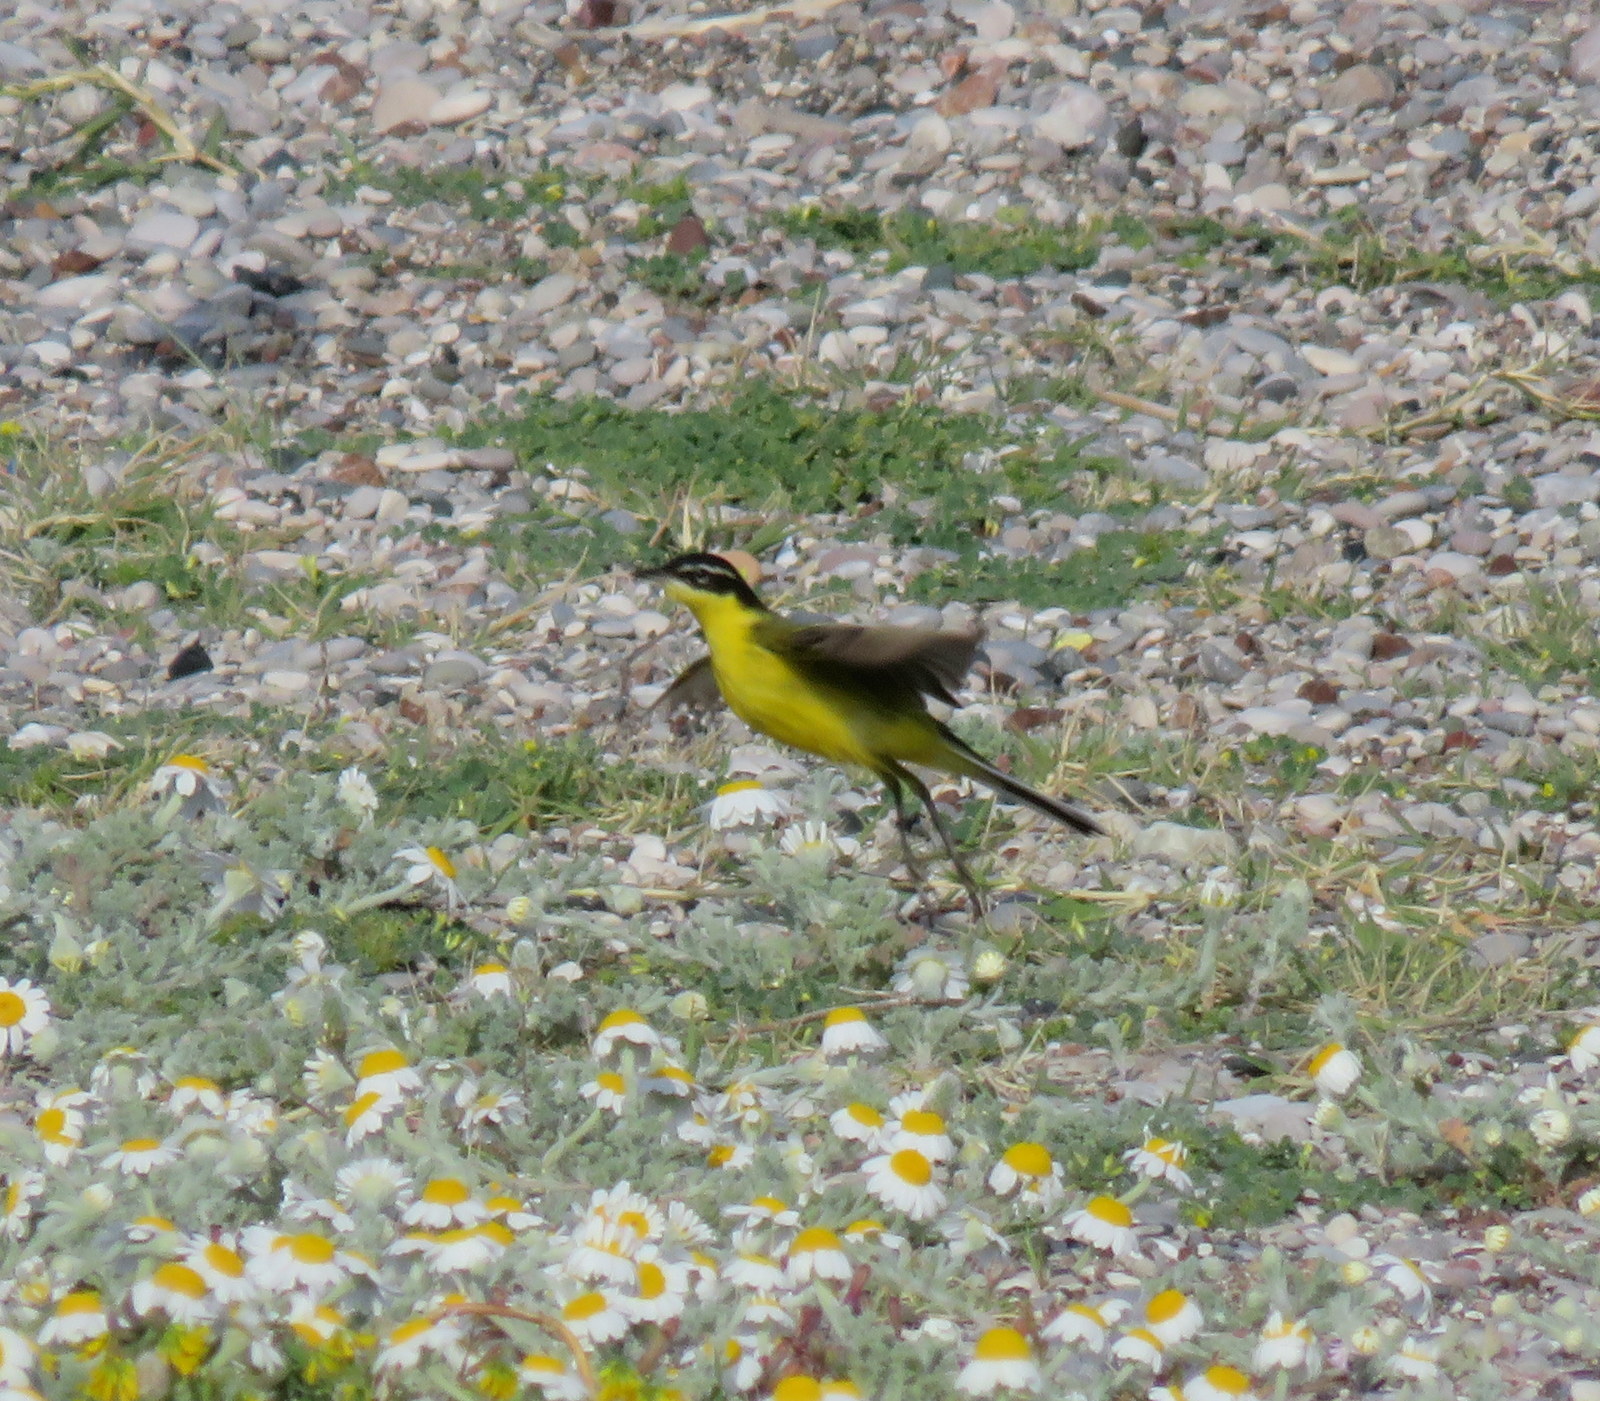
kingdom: Animalia
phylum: Chordata
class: Aves
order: Passeriformes
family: Motacillidae
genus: Motacilla
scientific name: Motacilla flava
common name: Western yellow wagtail
